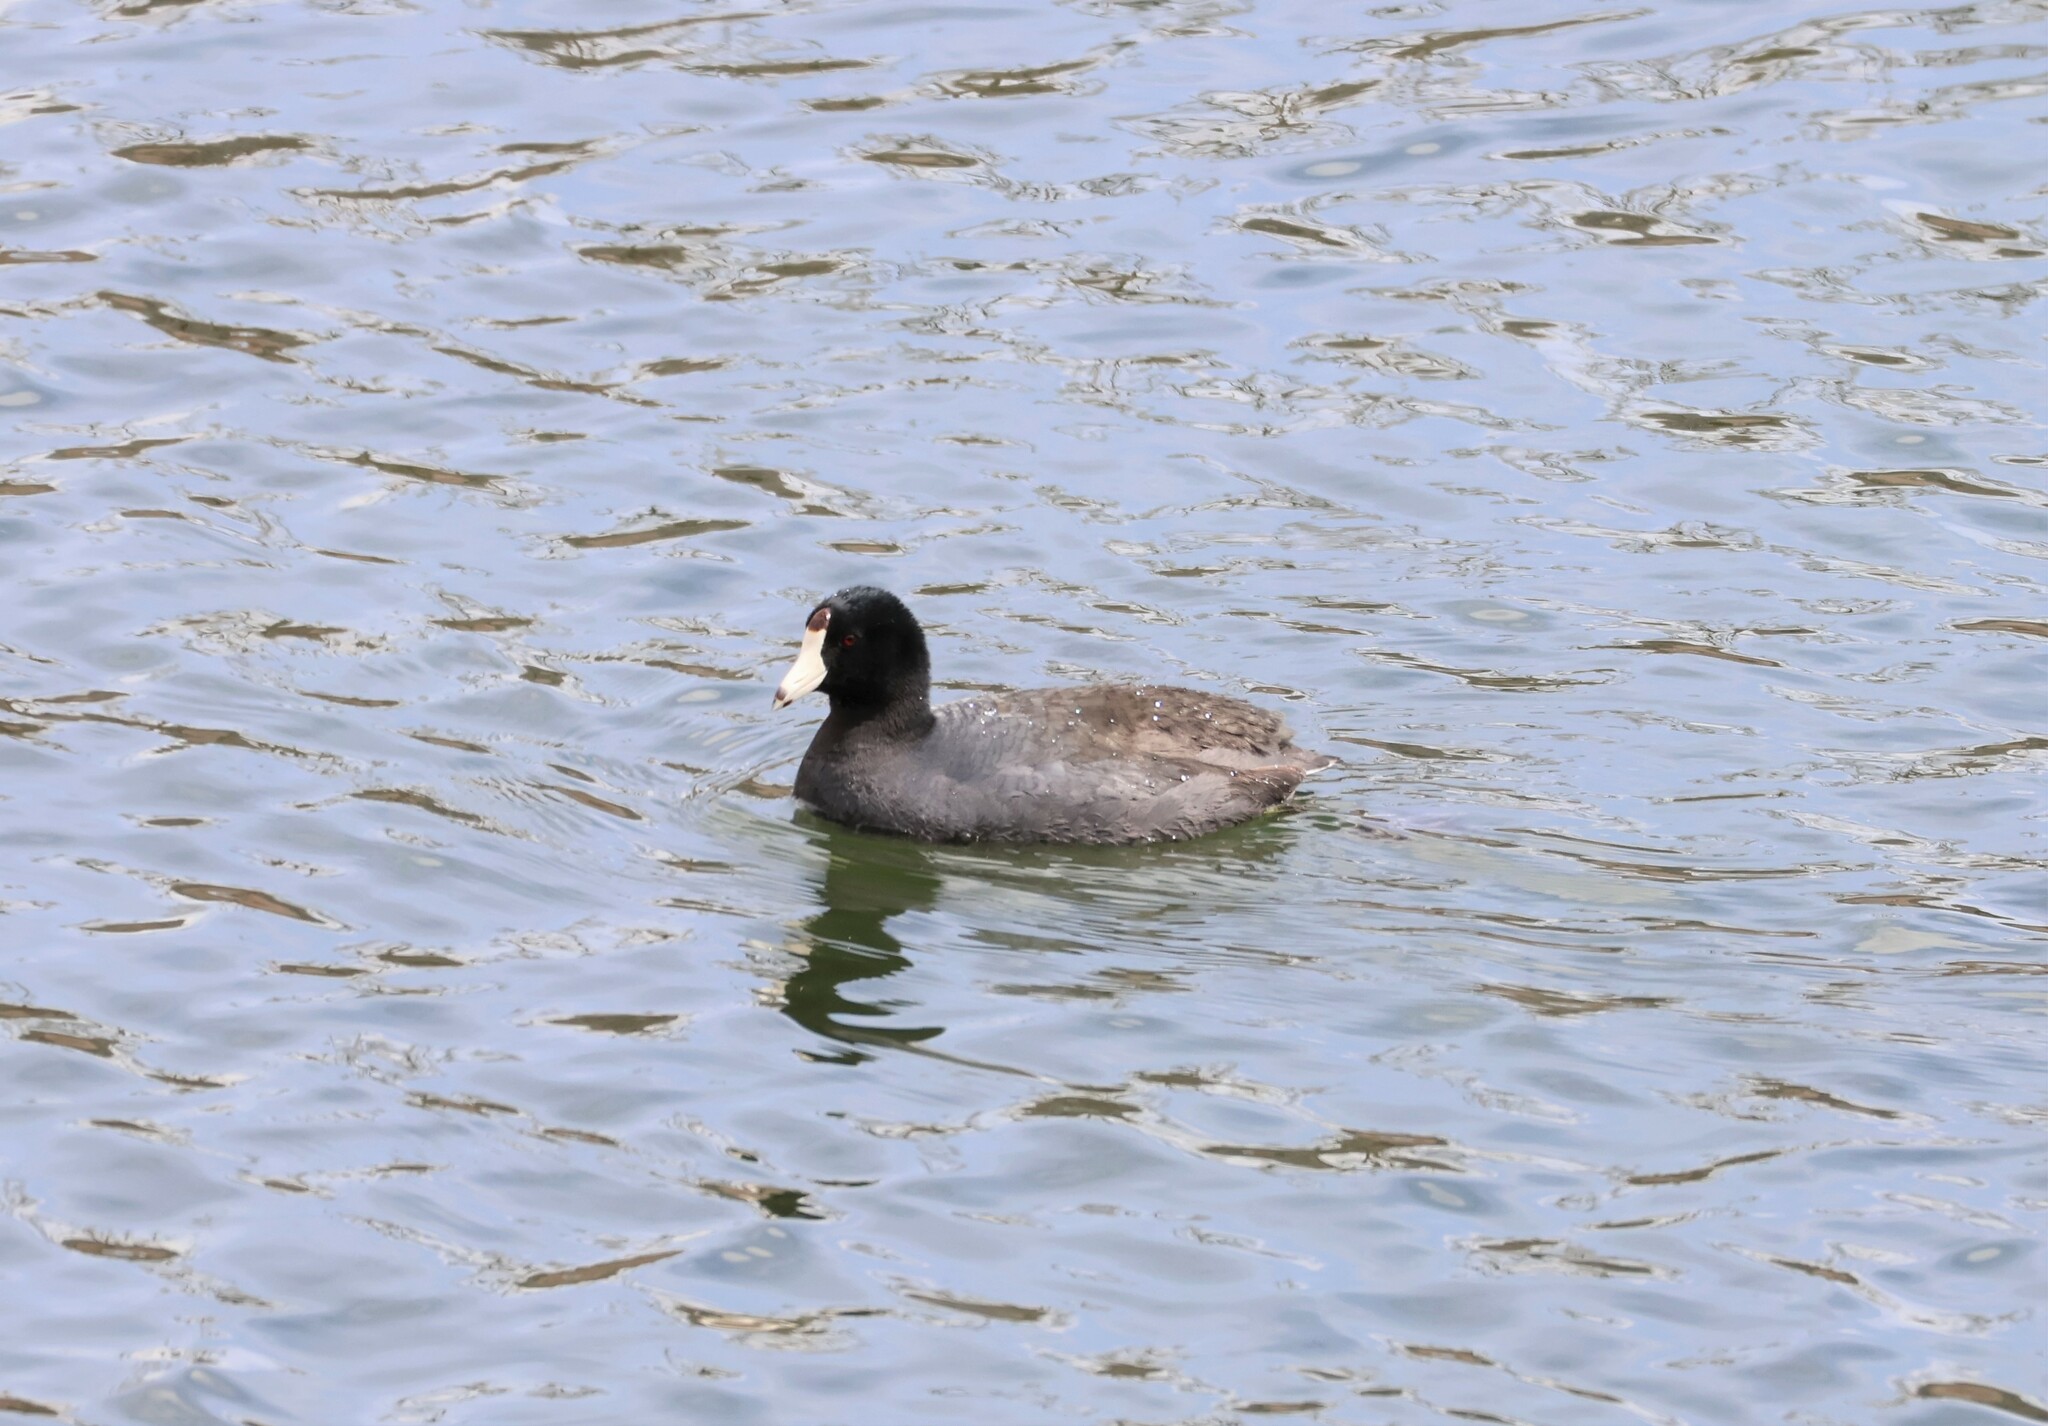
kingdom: Animalia
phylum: Chordata
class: Aves
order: Gruiformes
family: Rallidae
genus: Fulica
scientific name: Fulica americana
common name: American coot
